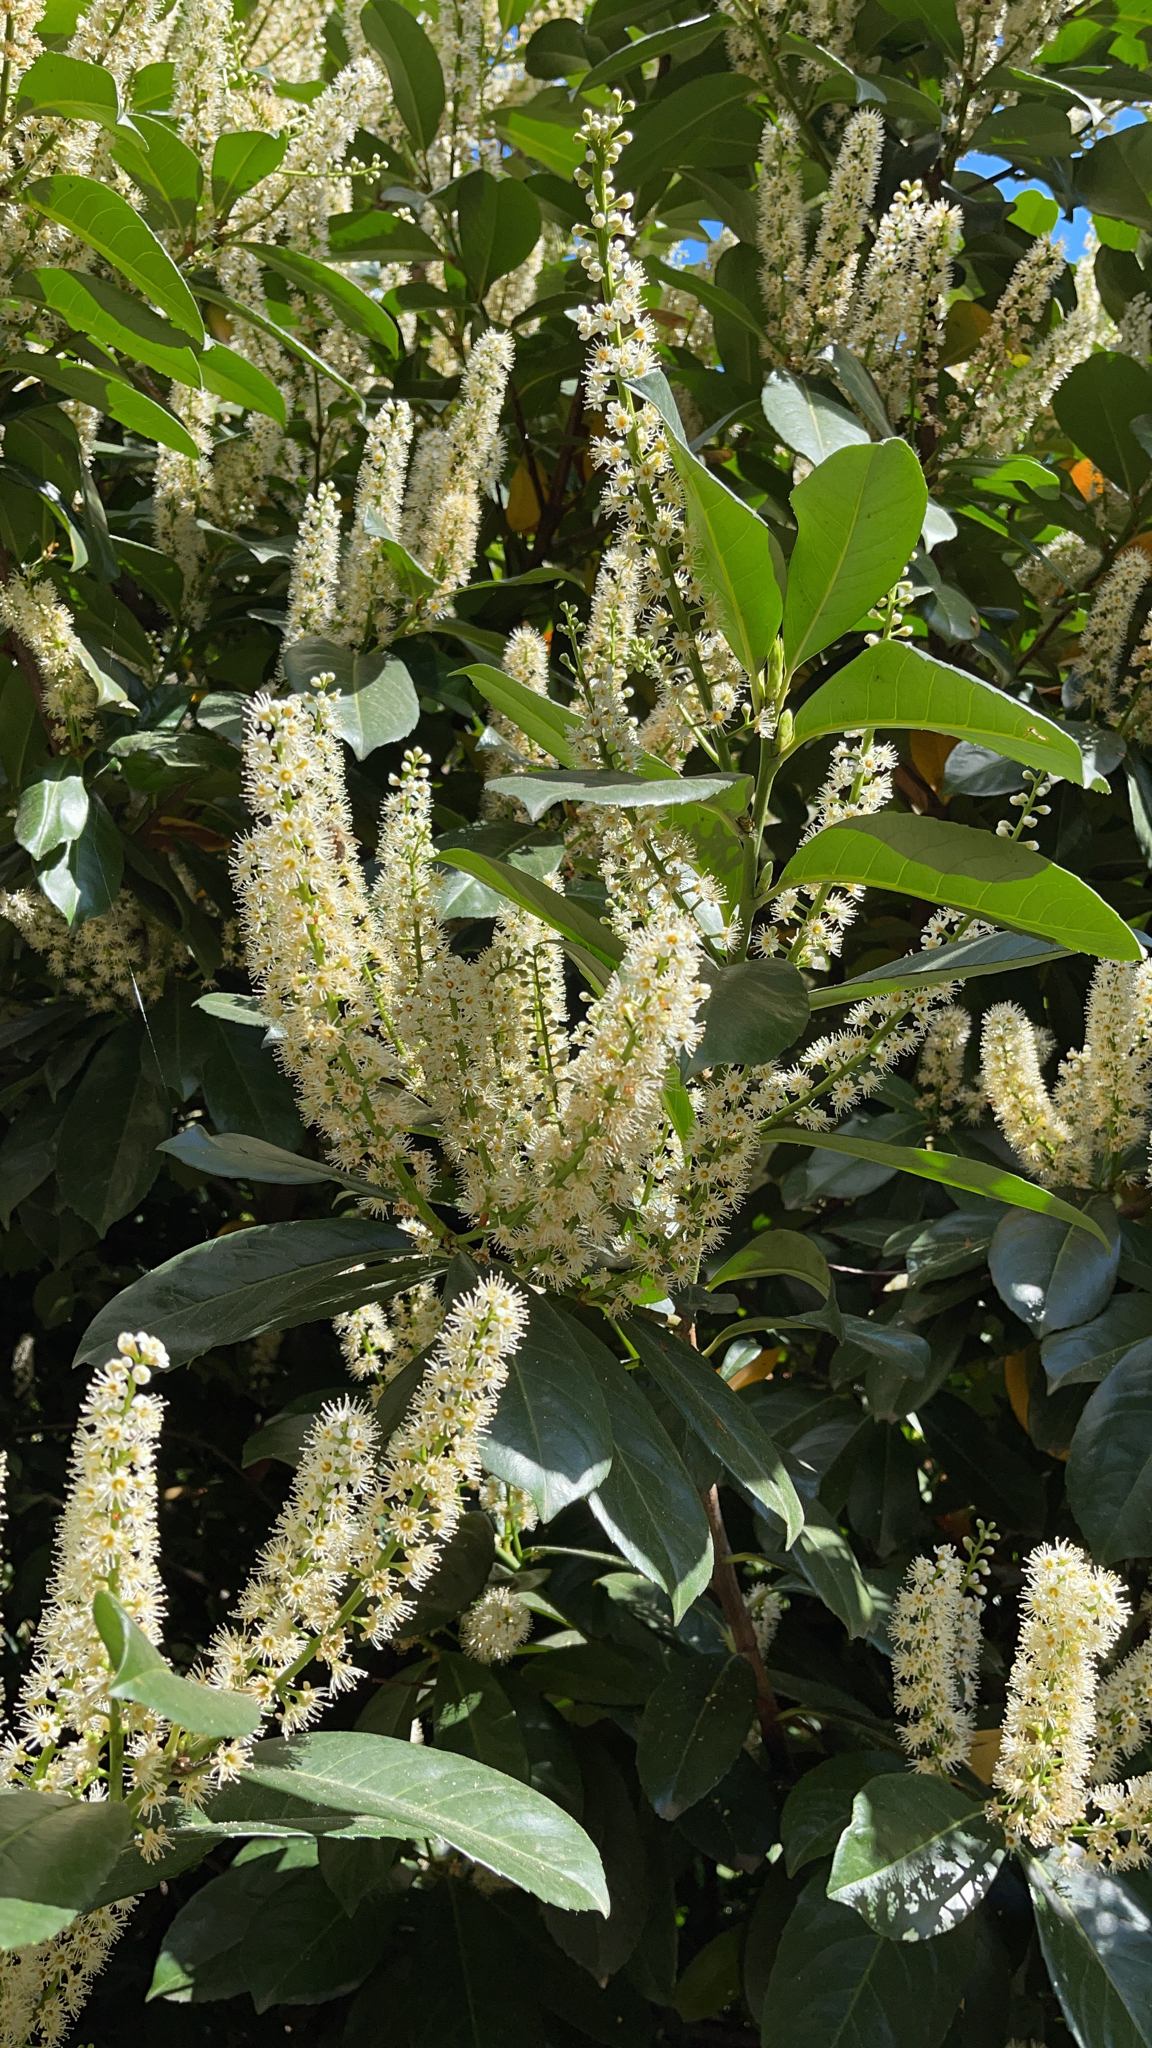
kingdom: Plantae
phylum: Tracheophyta
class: Magnoliopsida
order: Rosales
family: Rosaceae
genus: Prunus
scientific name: Prunus laurocerasus
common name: Cherry laurel
